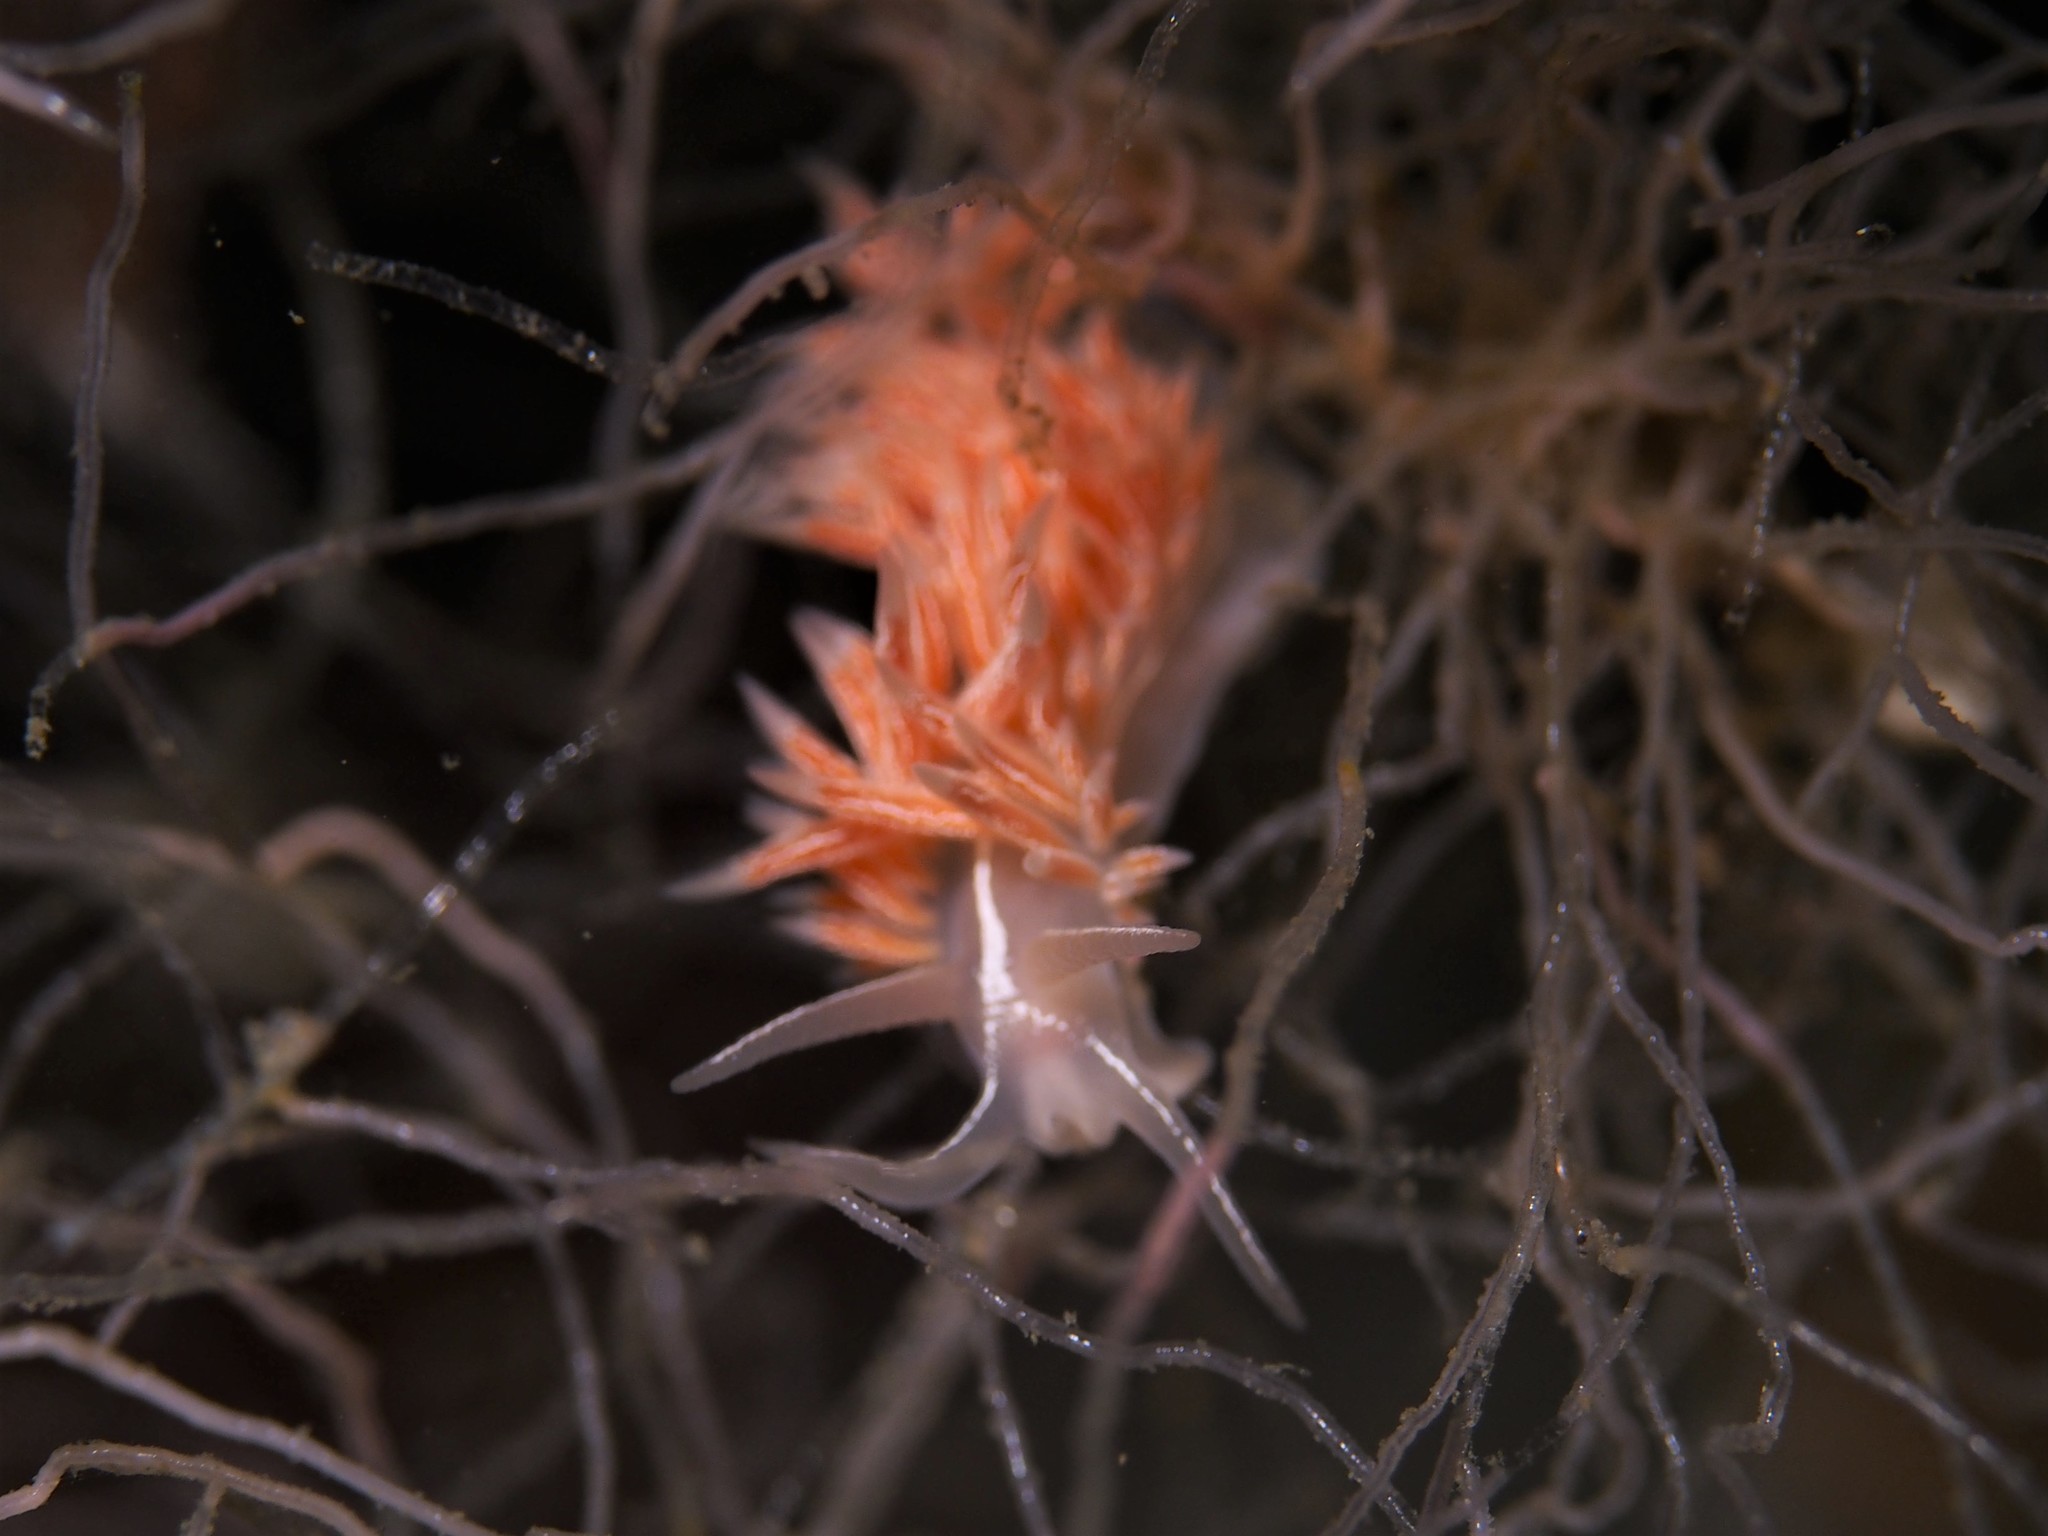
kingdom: Animalia
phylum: Mollusca
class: Gastropoda
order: Nudibranchia
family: Coryphellidae
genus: Coryphella
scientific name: Coryphella chriskaugei
